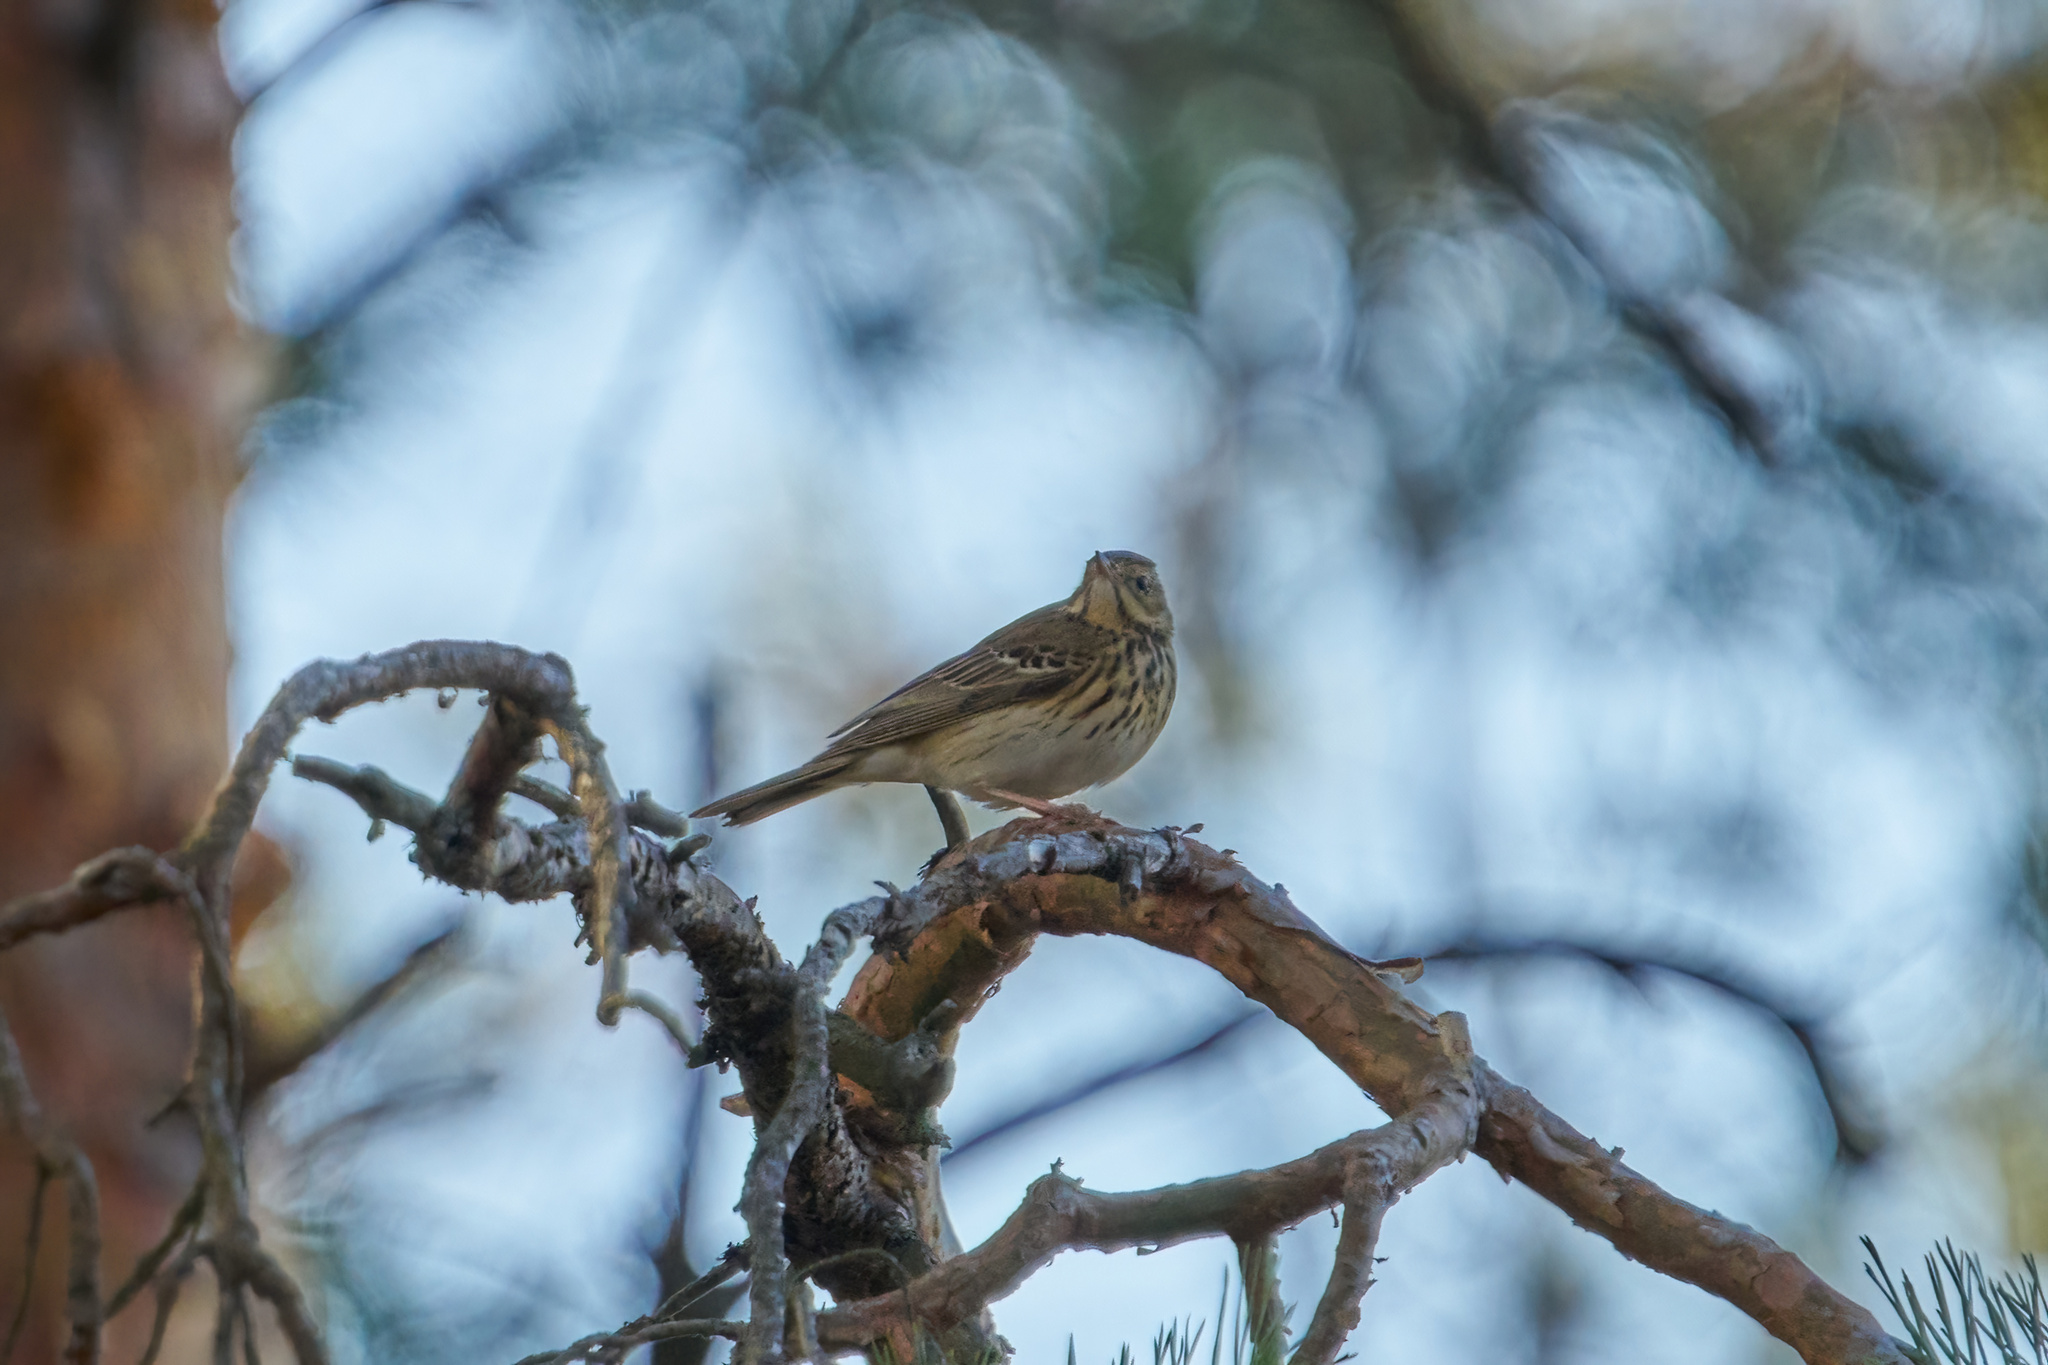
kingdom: Animalia
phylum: Chordata
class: Aves
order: Passeriformes
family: Motacillidae
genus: Anthus
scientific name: Anthus trivialis
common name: Tree pipit
